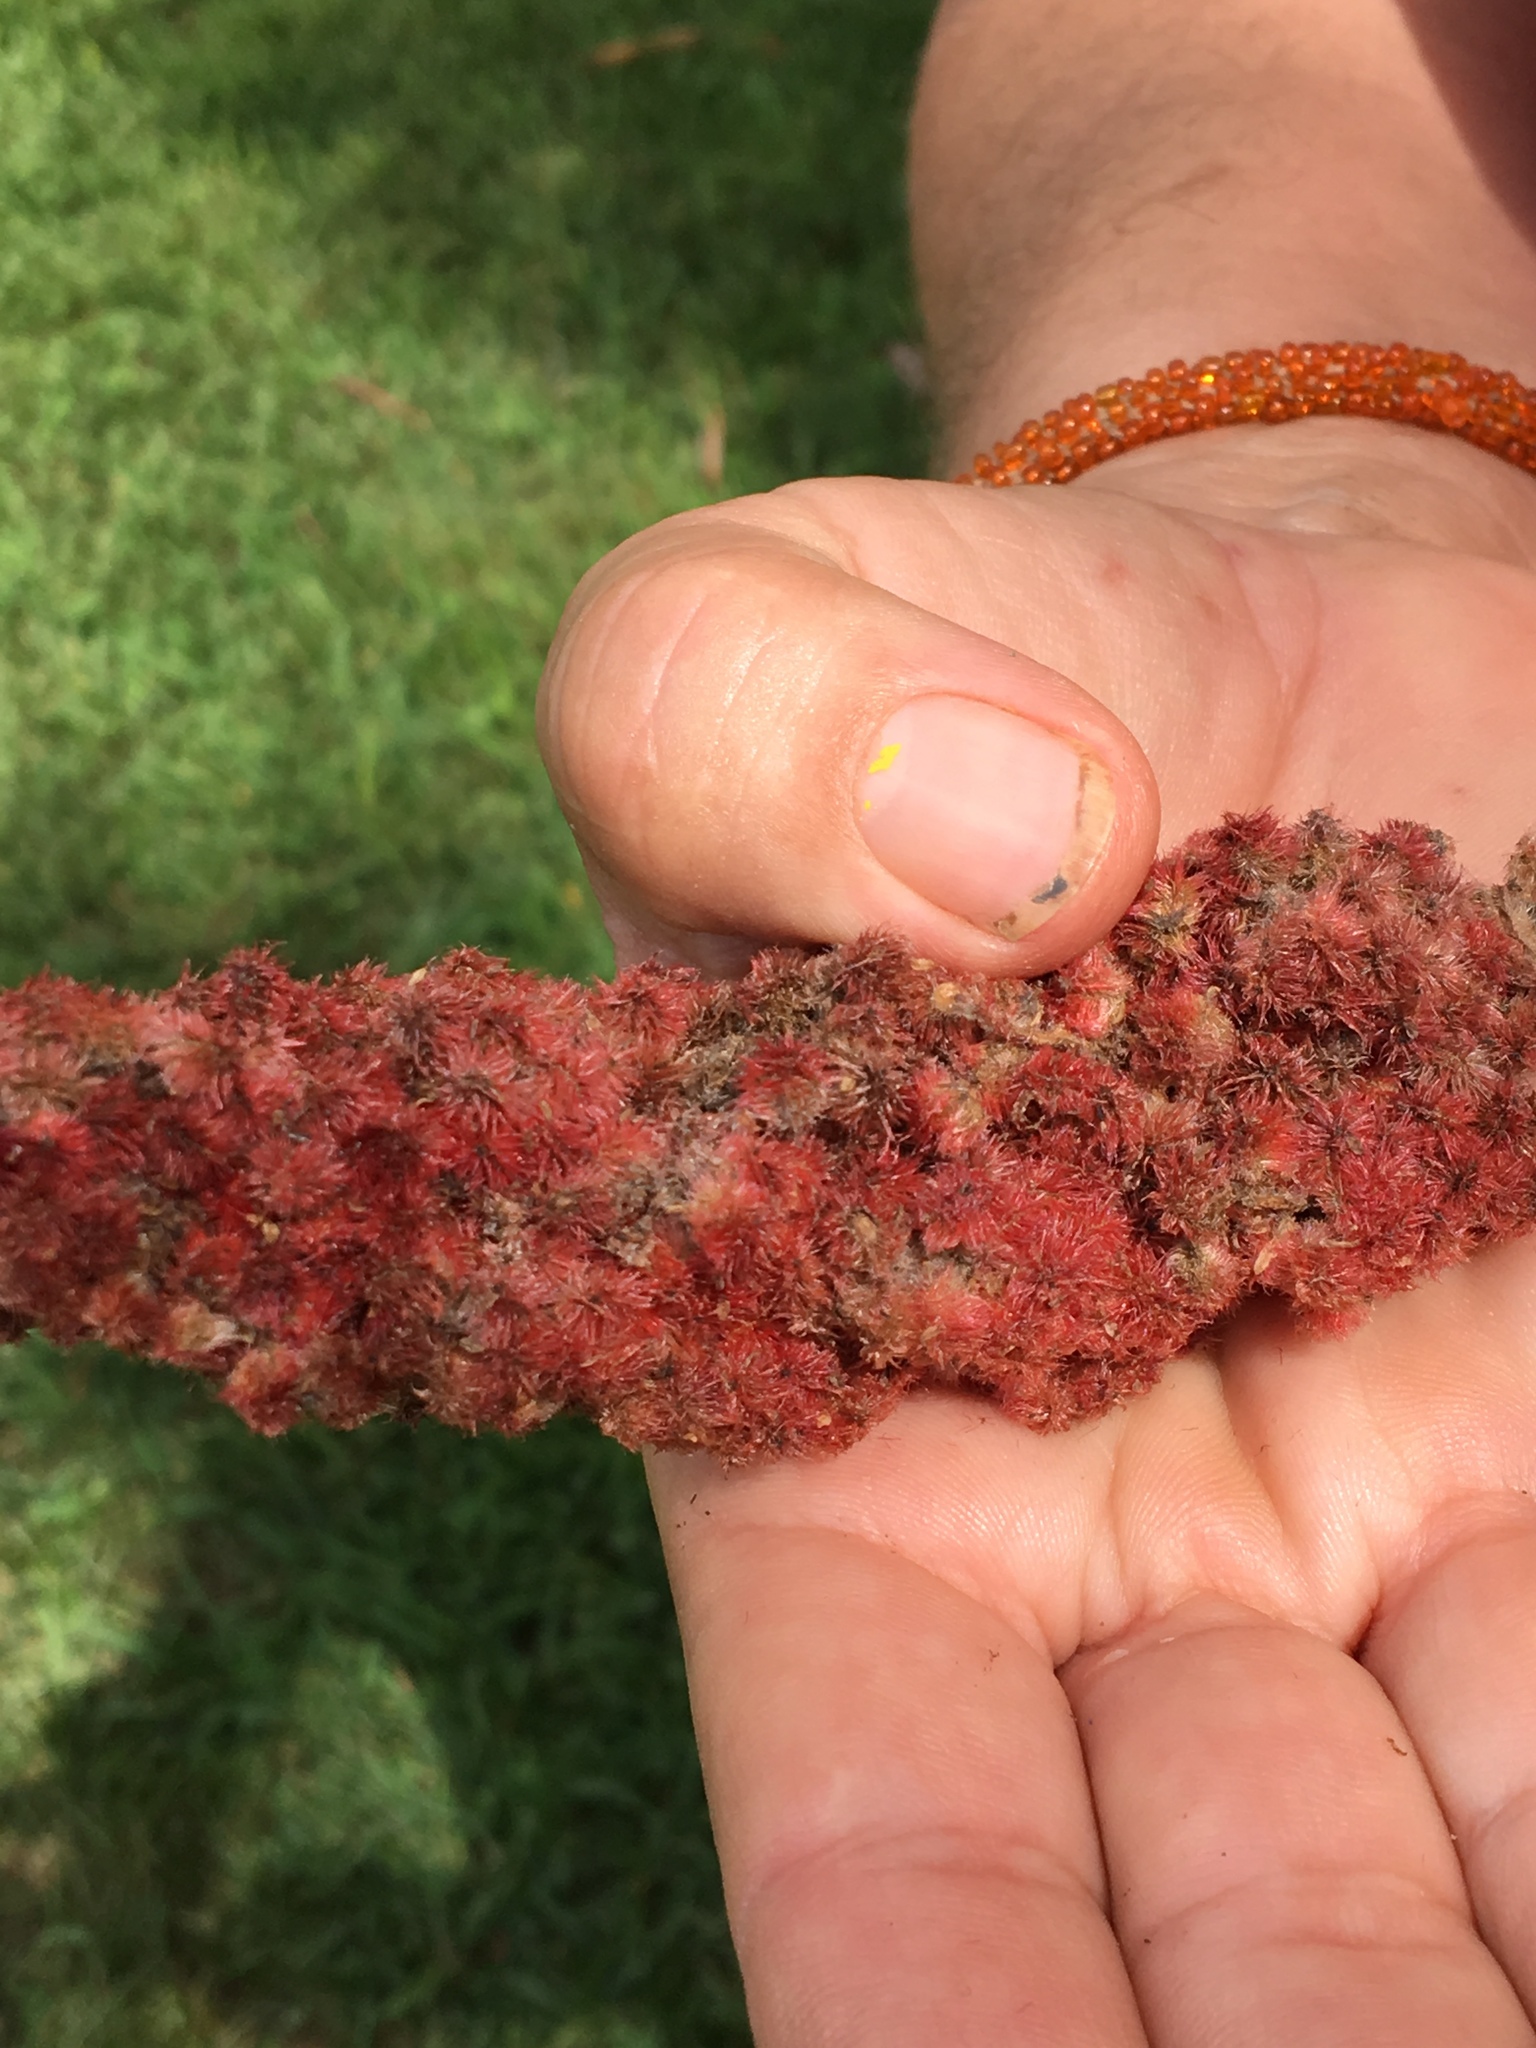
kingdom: Plantae
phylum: Tracheophyta
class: Magnoliopsida
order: Sapindales
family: Anacardiaceae
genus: Rhus
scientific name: Rhus typhina
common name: Staghorn sumac
